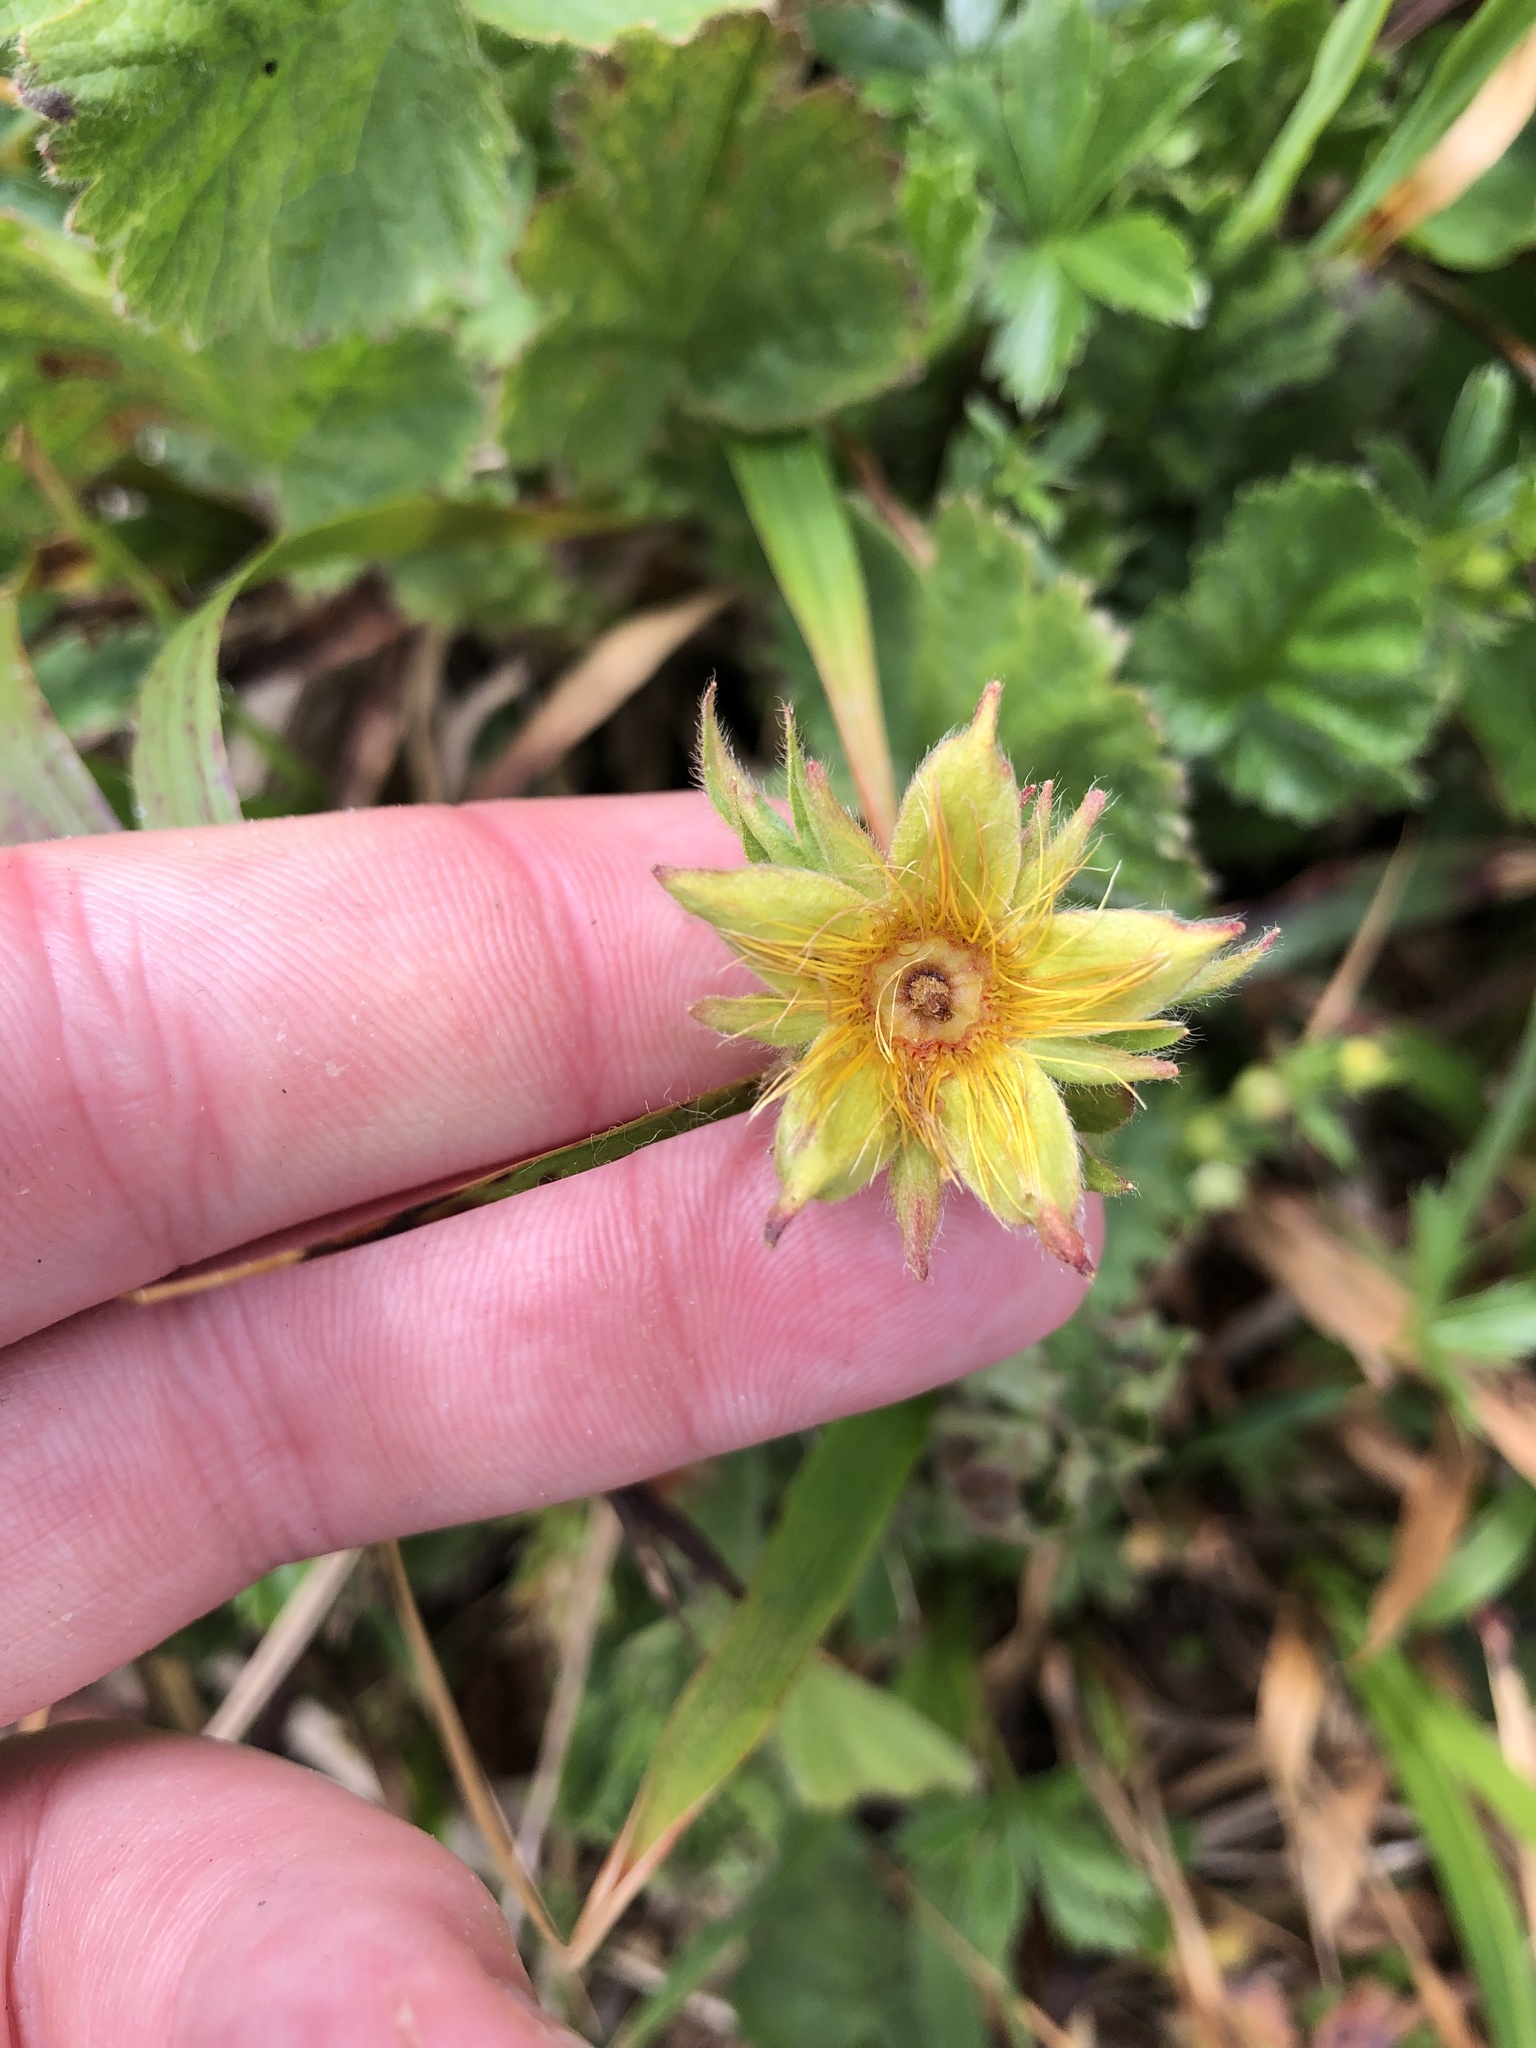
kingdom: Plantae
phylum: Tracheophyta
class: Magnoliopsida
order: Rosales
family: Rosaceae
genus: Geum
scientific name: Geum montanum
